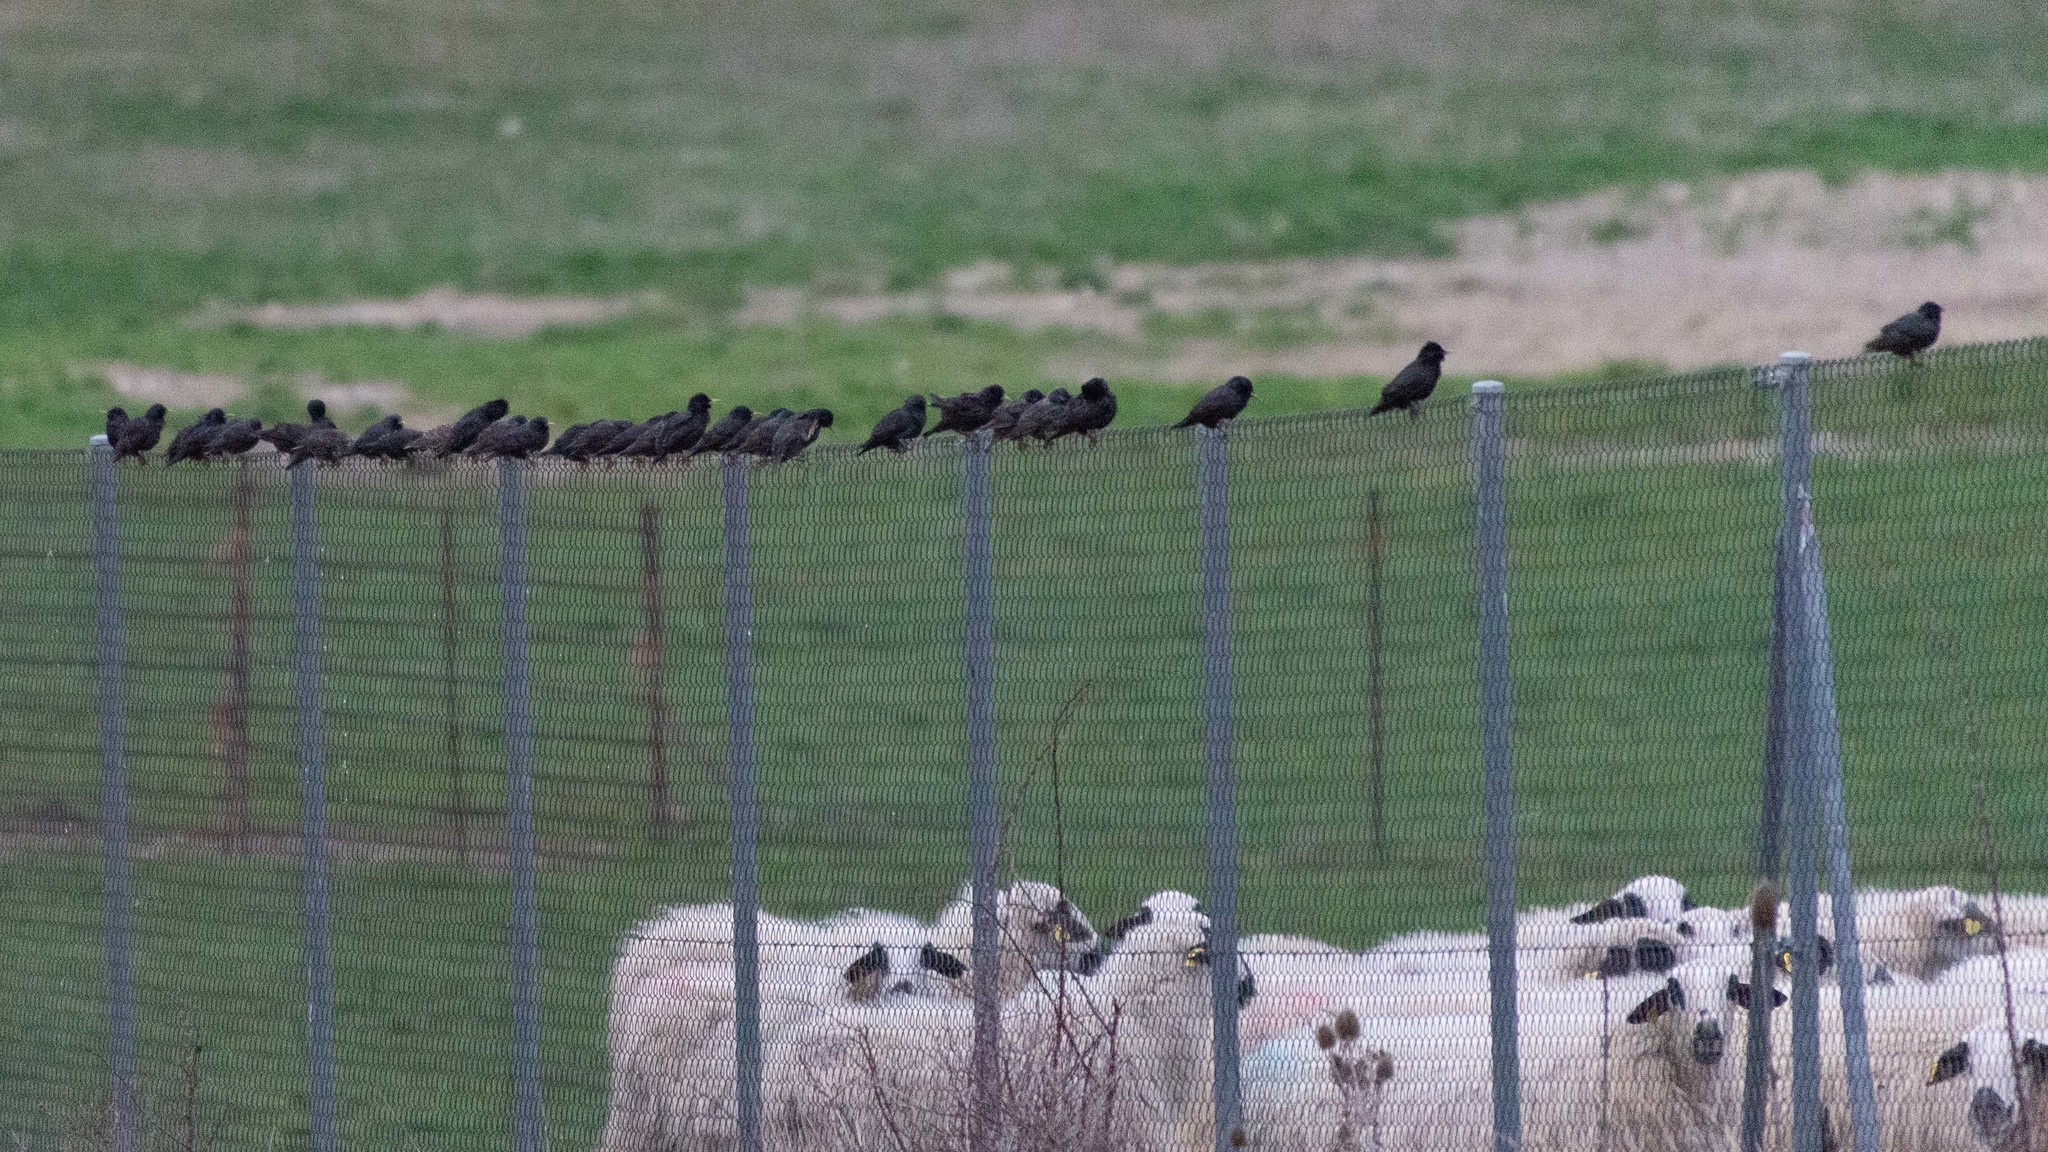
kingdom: Animalia
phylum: Chordata
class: Aves
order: Passeriformes
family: Sturnidae
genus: Sturnus
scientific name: Sturnus vulgaris
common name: Common starling
